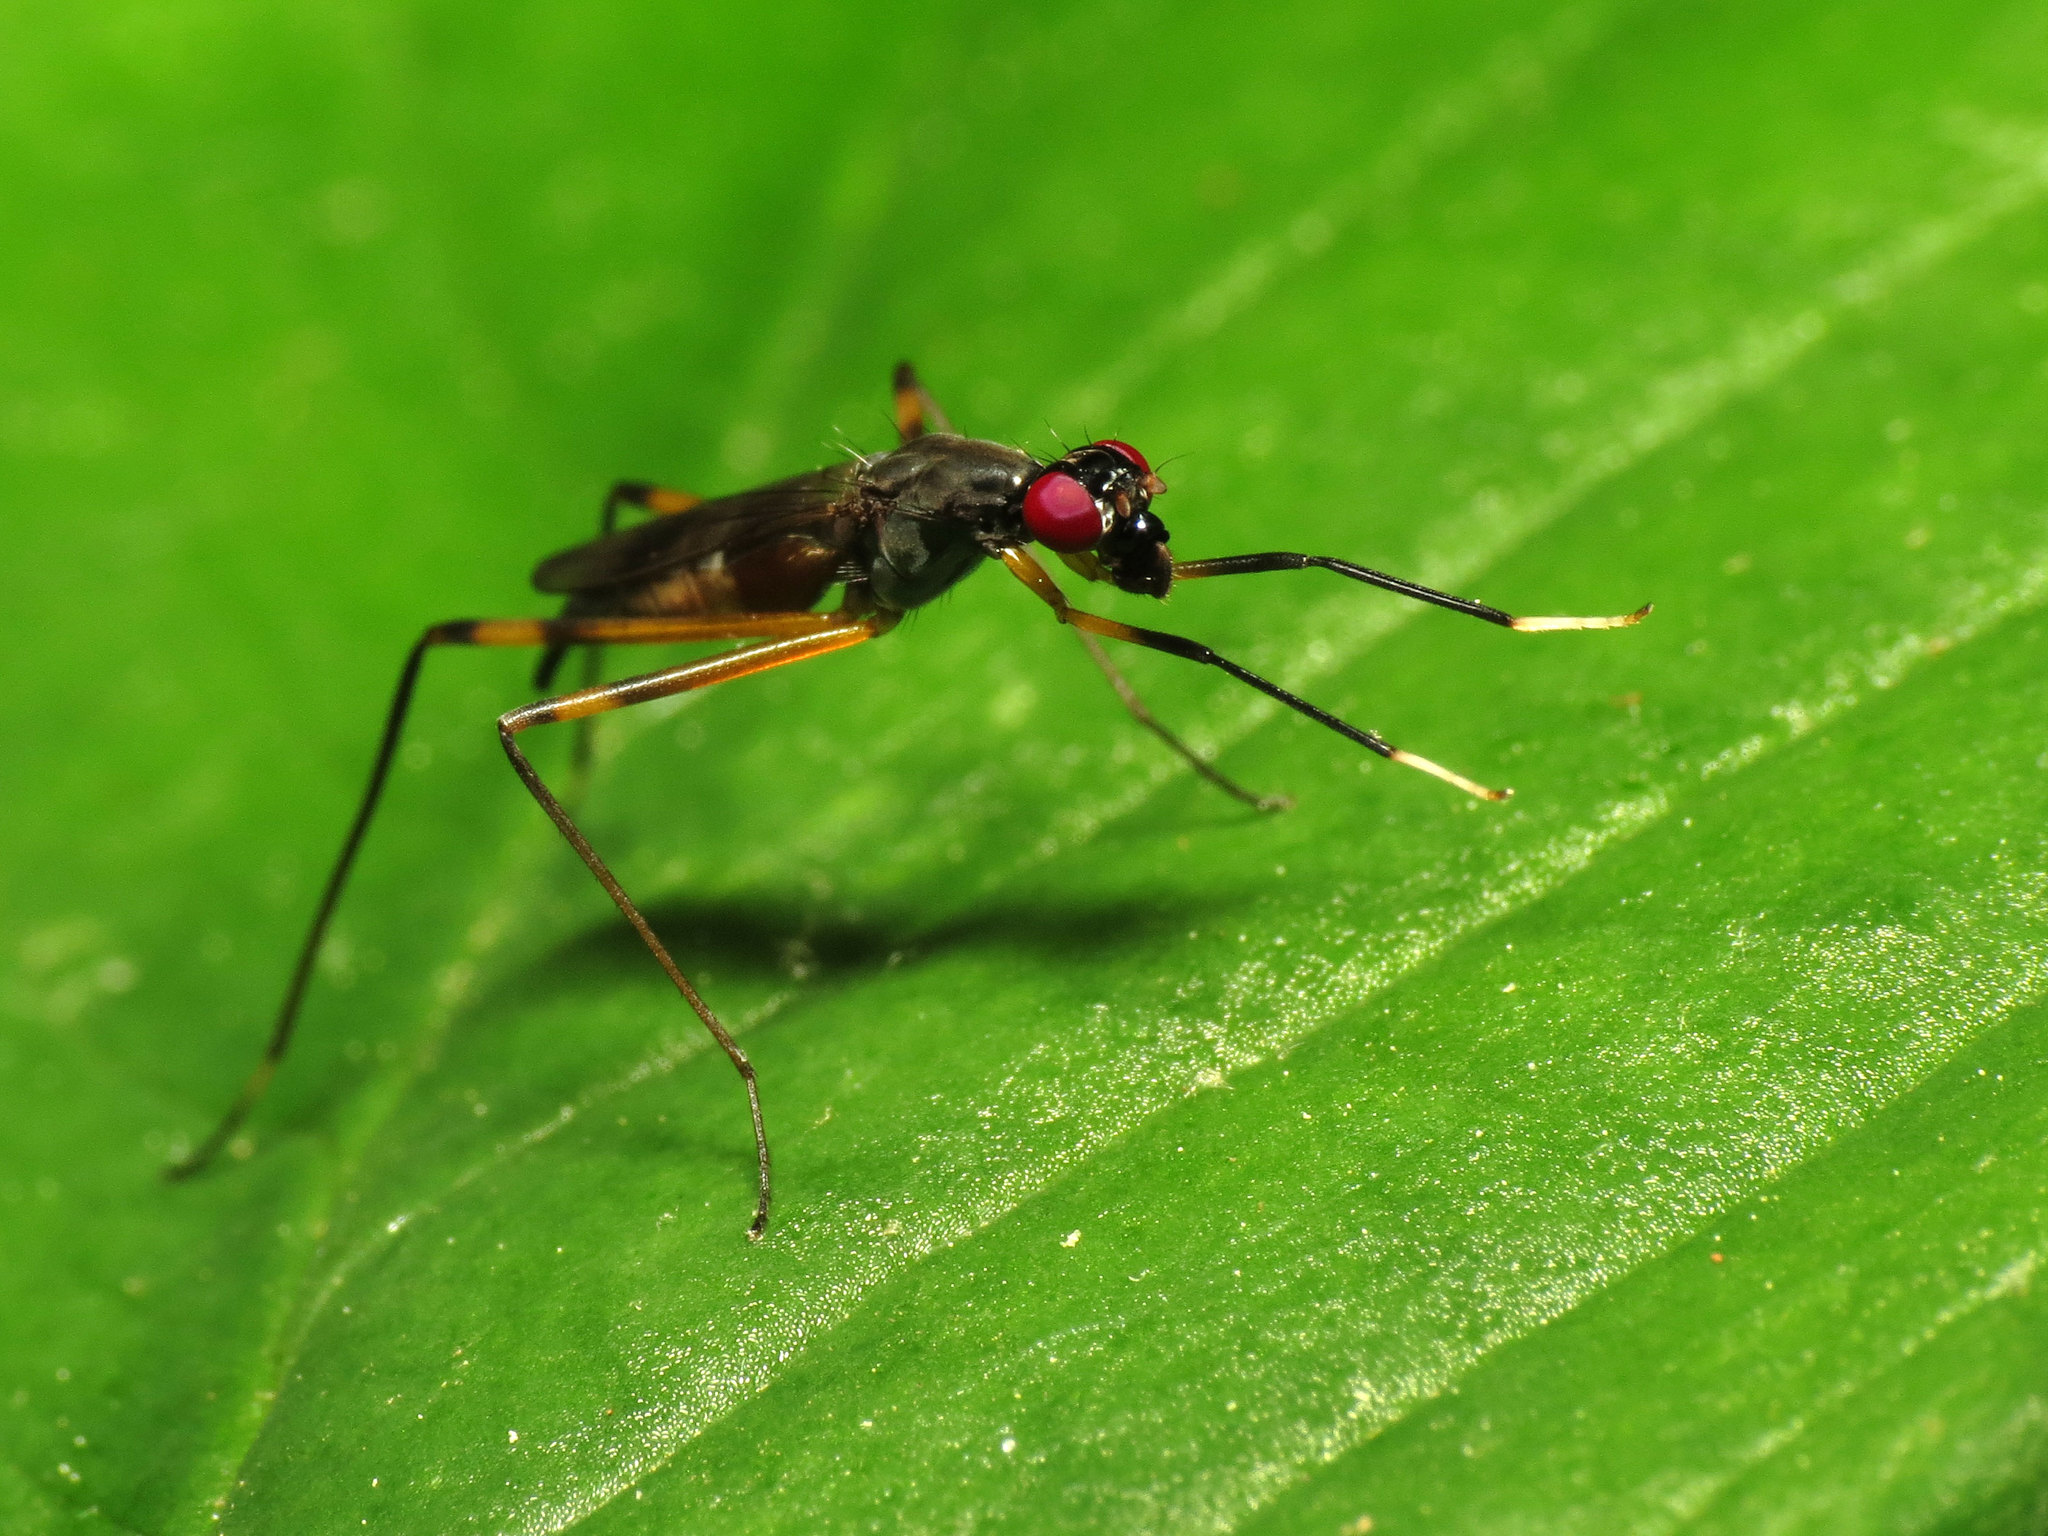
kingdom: Animalia
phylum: Arthropoda
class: Insecta
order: Diptera
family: Micropezidae
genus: Rainieria
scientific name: Rainieria antennaepes
